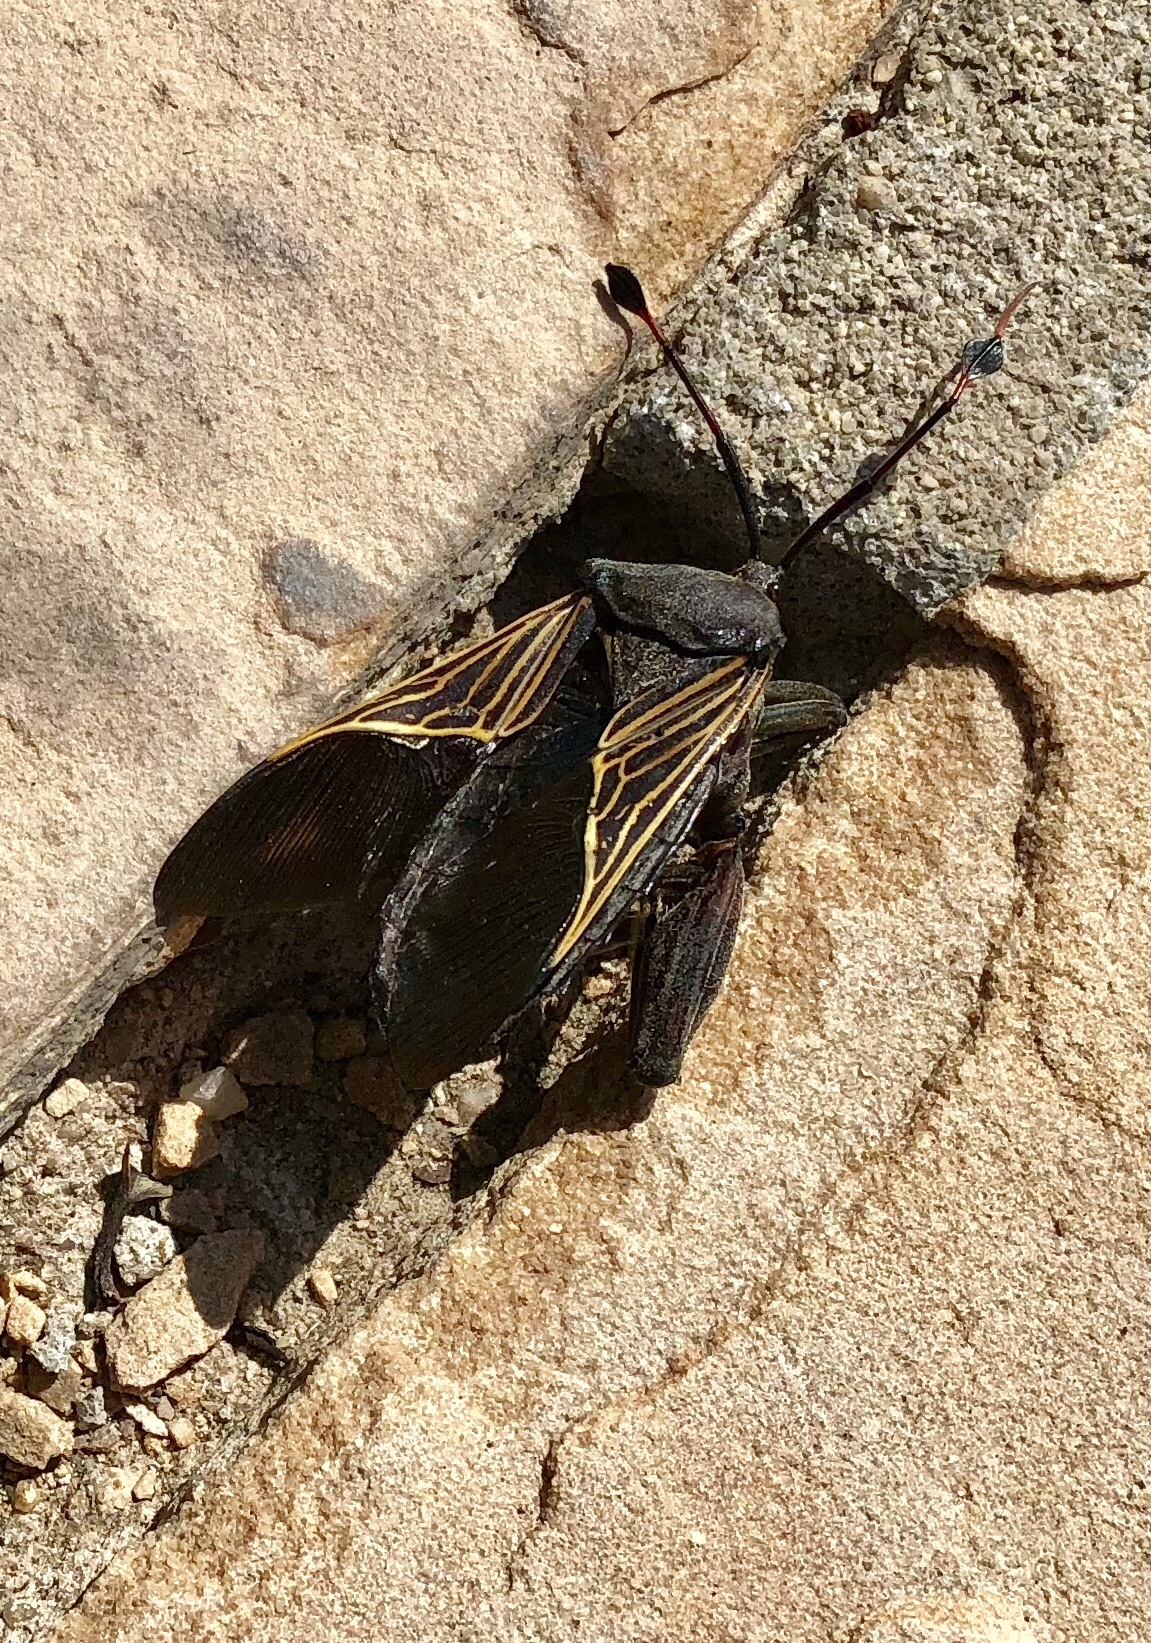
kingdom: Animalia
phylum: Arthropoda
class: Insecta
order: Hemiptera
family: Coreidae
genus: Thasus
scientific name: Thasus neocalifornicus
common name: Giant mesquite bug
